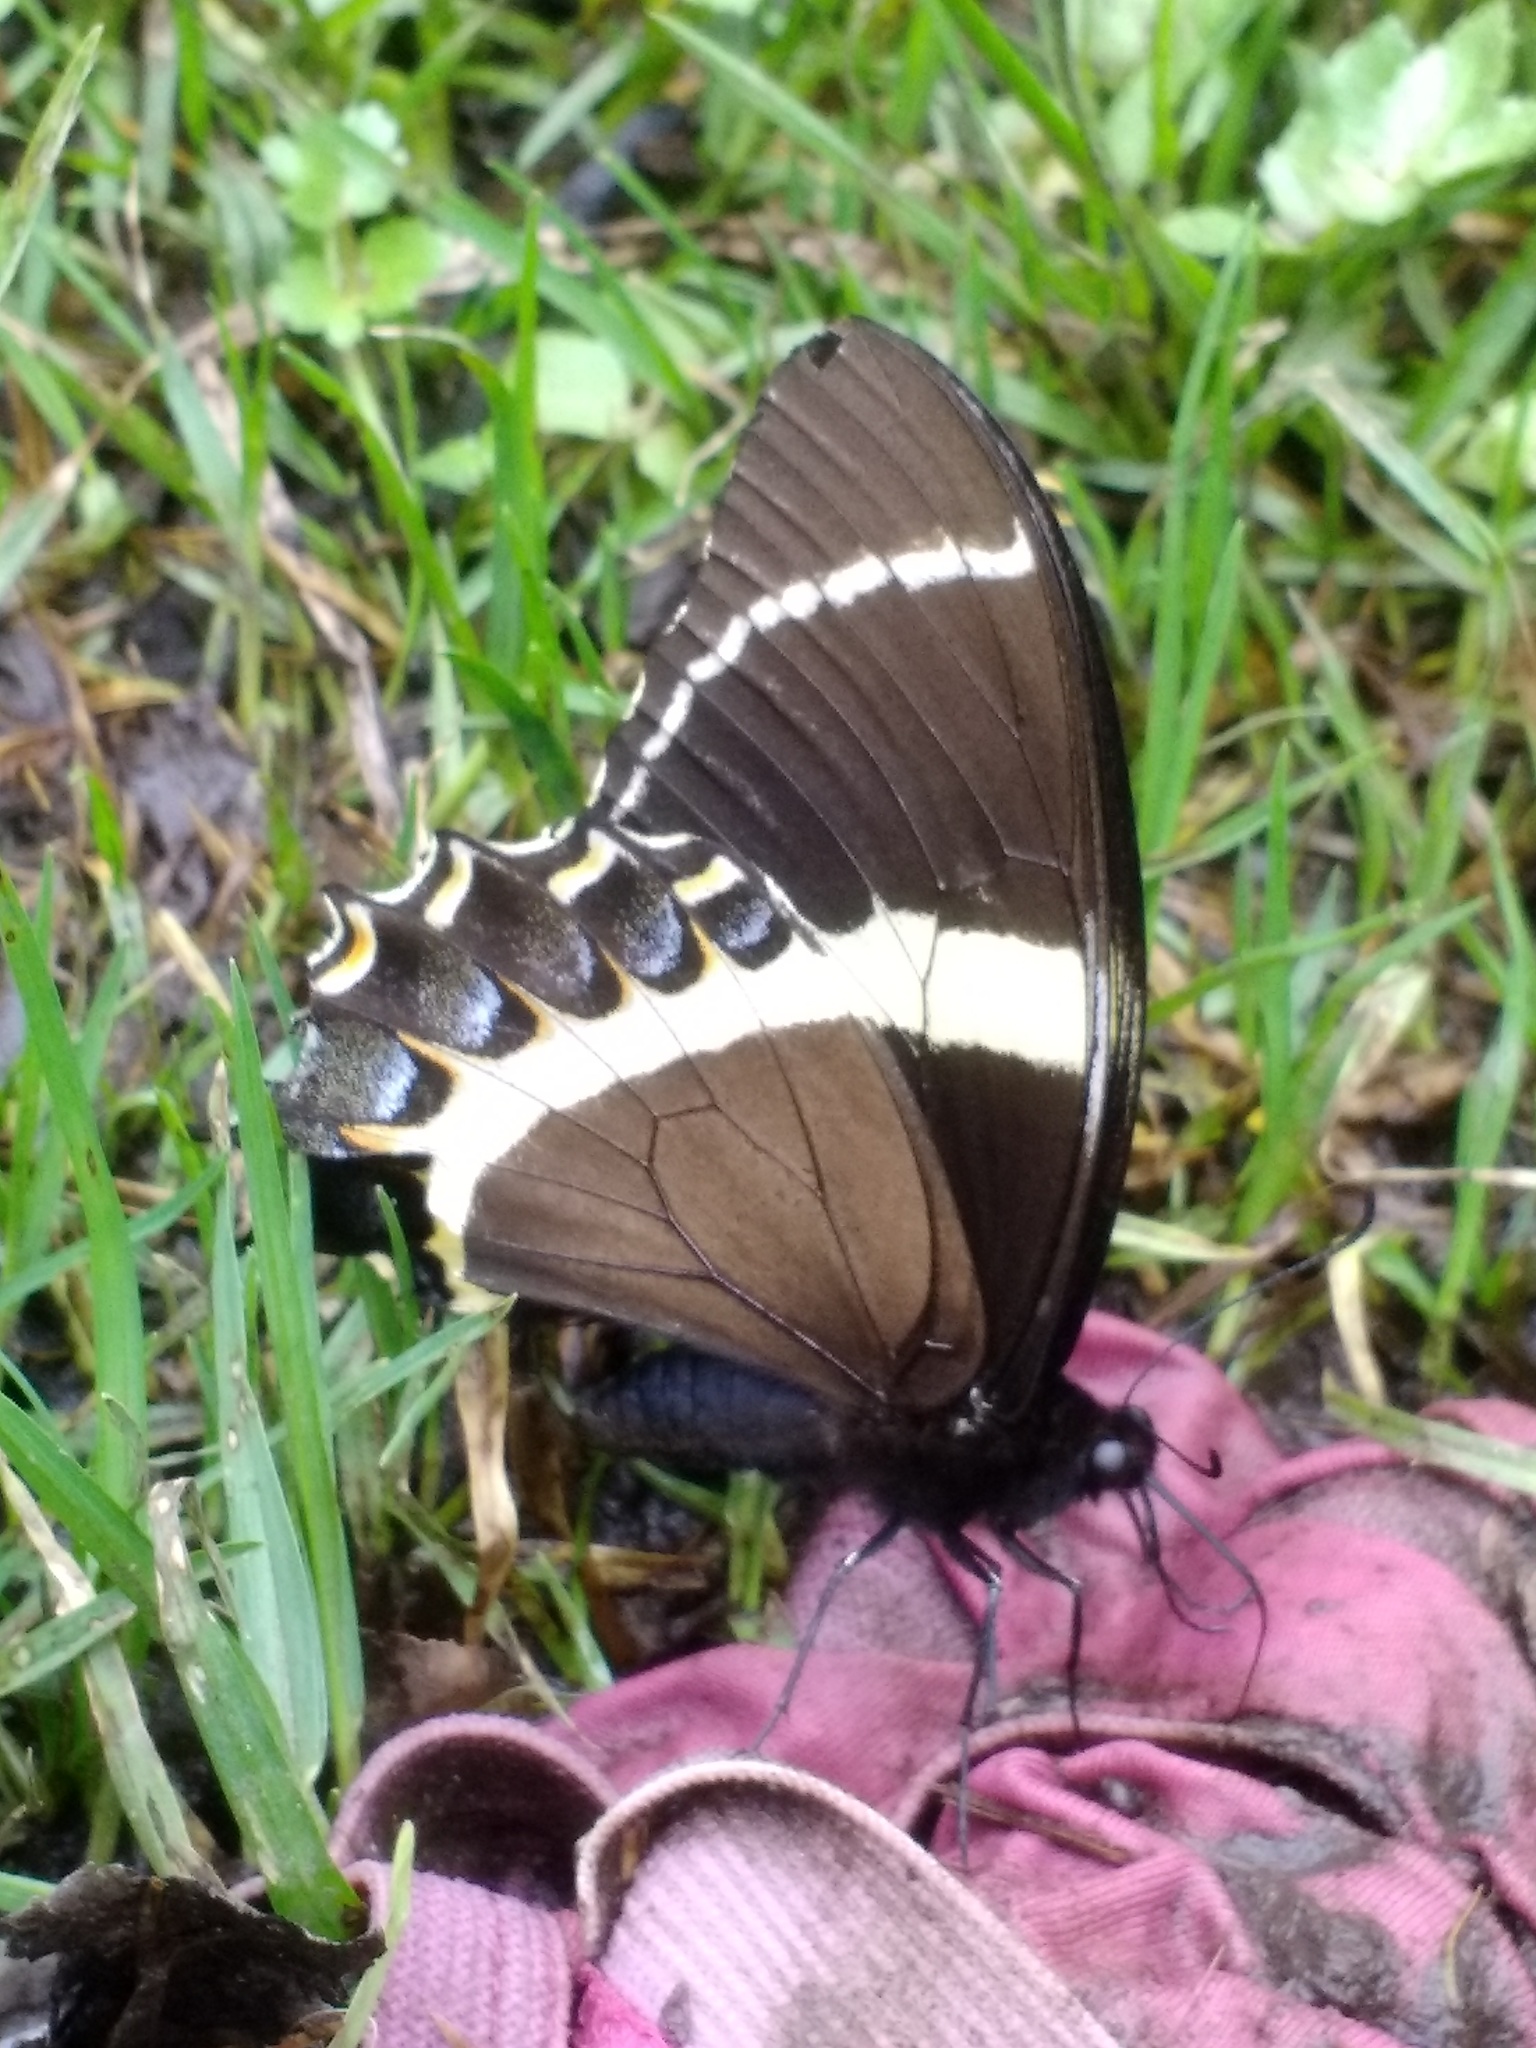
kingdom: Animalia
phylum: Arthropoda
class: Insecta
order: Lepidoptera
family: Papilionidae
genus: Papilio
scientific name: Papilio garamas
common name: Magnificent swallowtail
